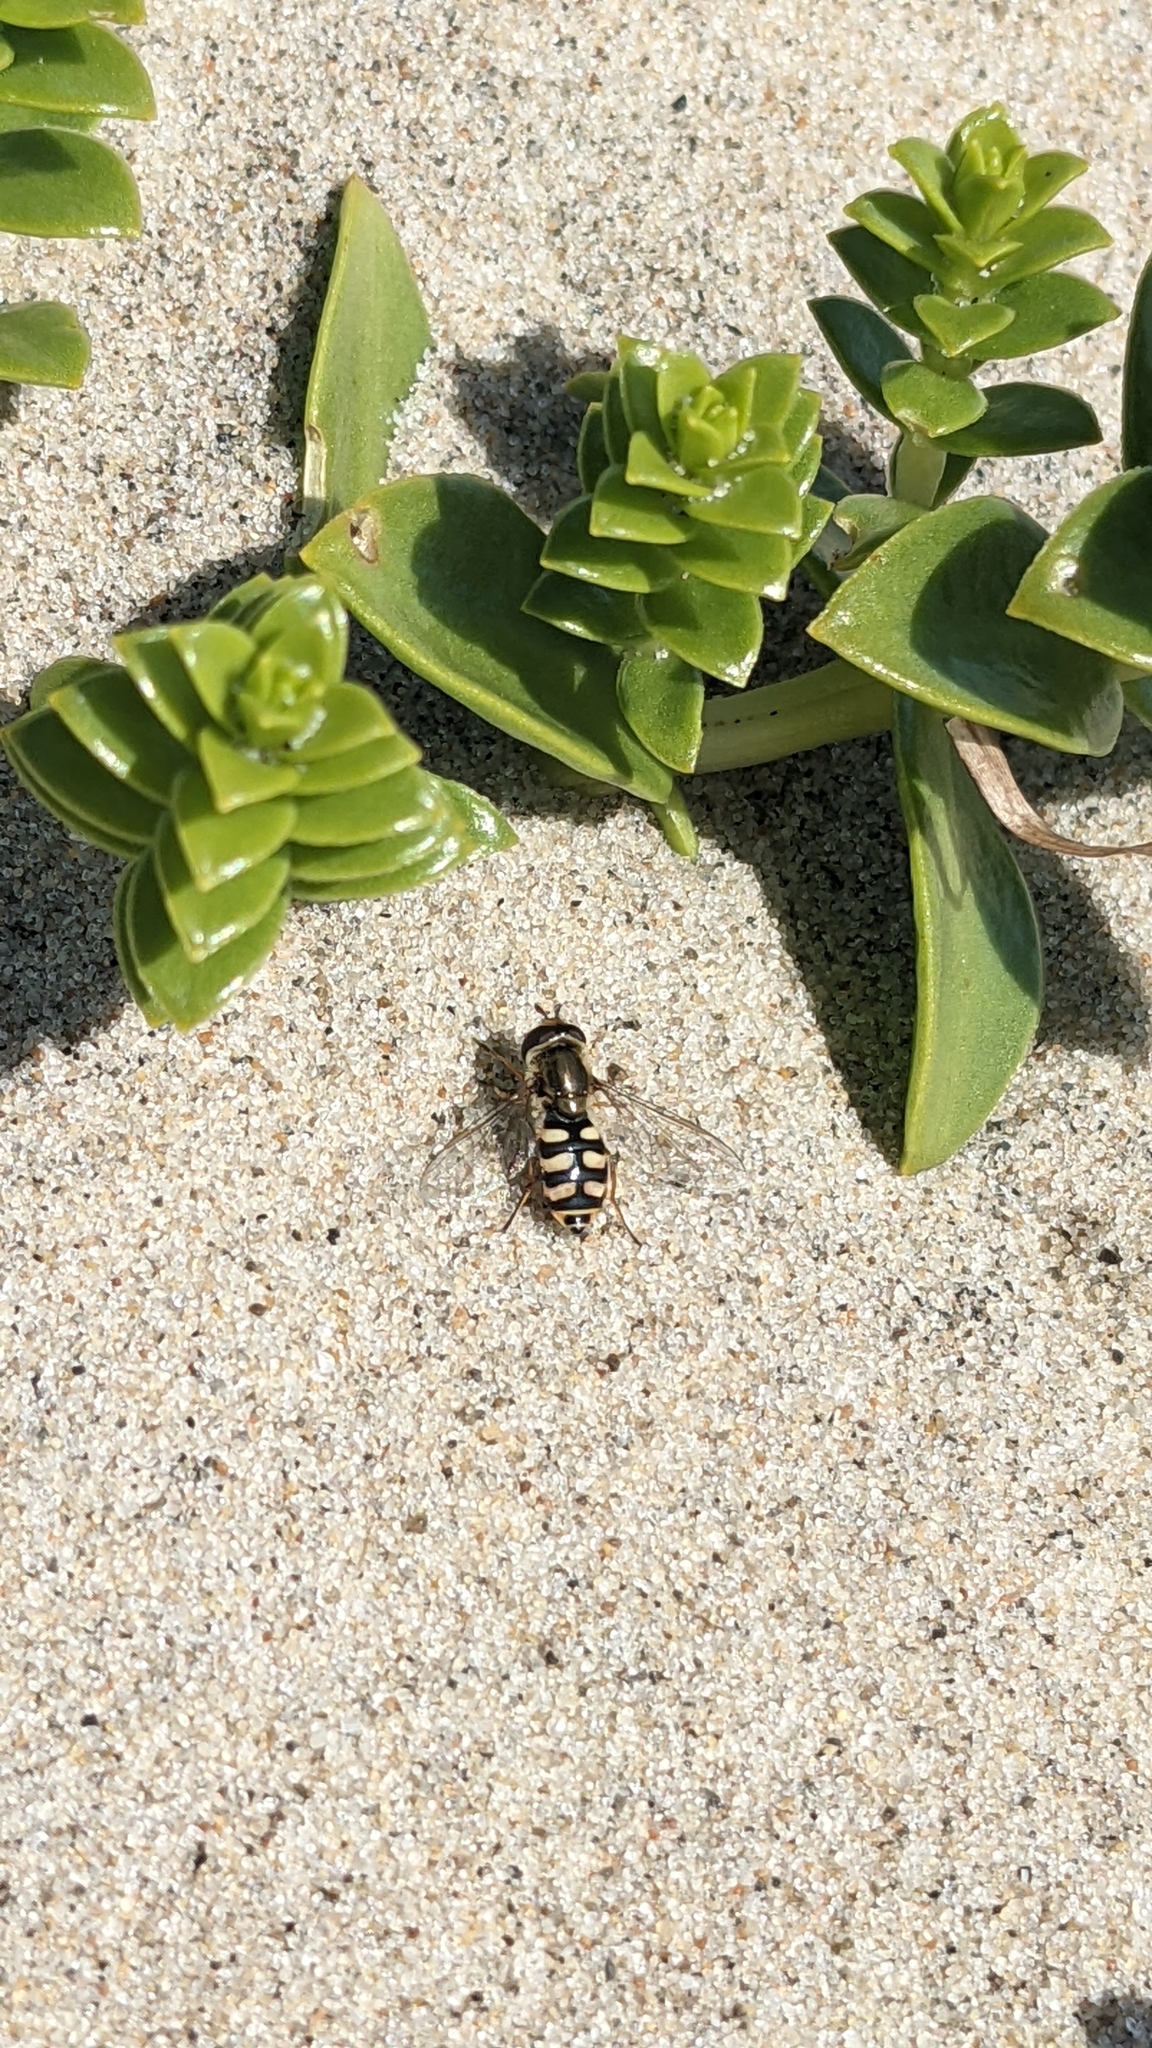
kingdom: Animalia
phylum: Arthropoda
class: Insecta
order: Diptera
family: Syrphidae
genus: Eupeodes
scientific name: Eupeodes corollae
